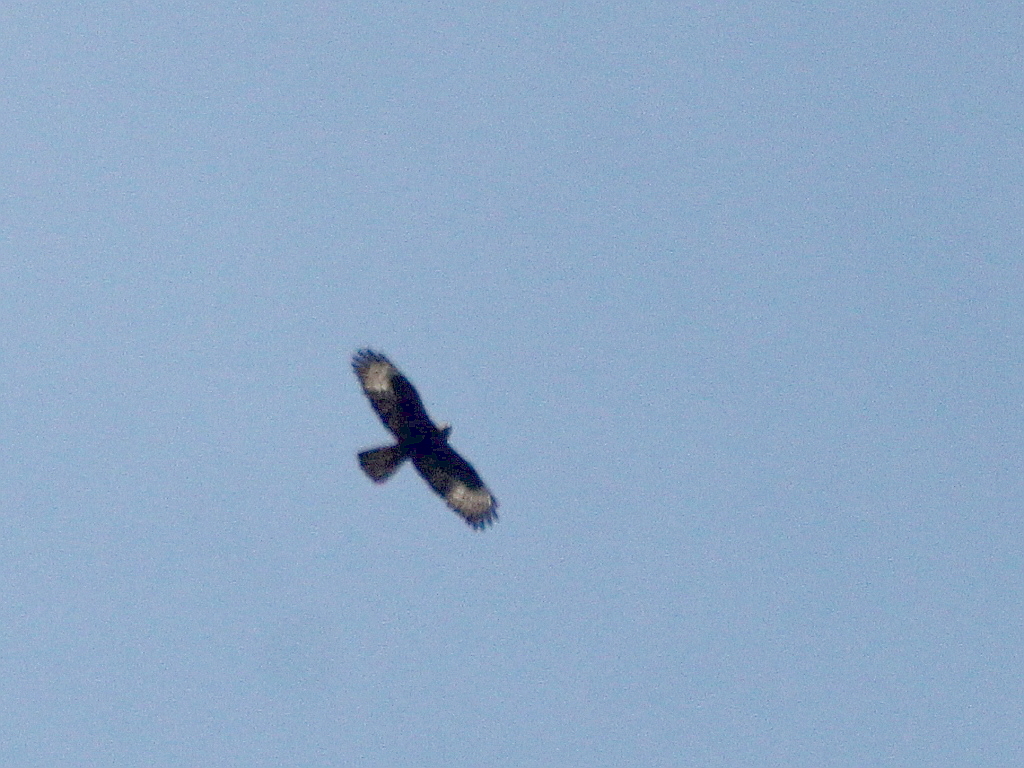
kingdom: Animalia
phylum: Chordata
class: Aves
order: Accipitriformes
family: Accipitridae
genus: Pernis
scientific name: Pernis apivorus
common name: European honey buzzard
